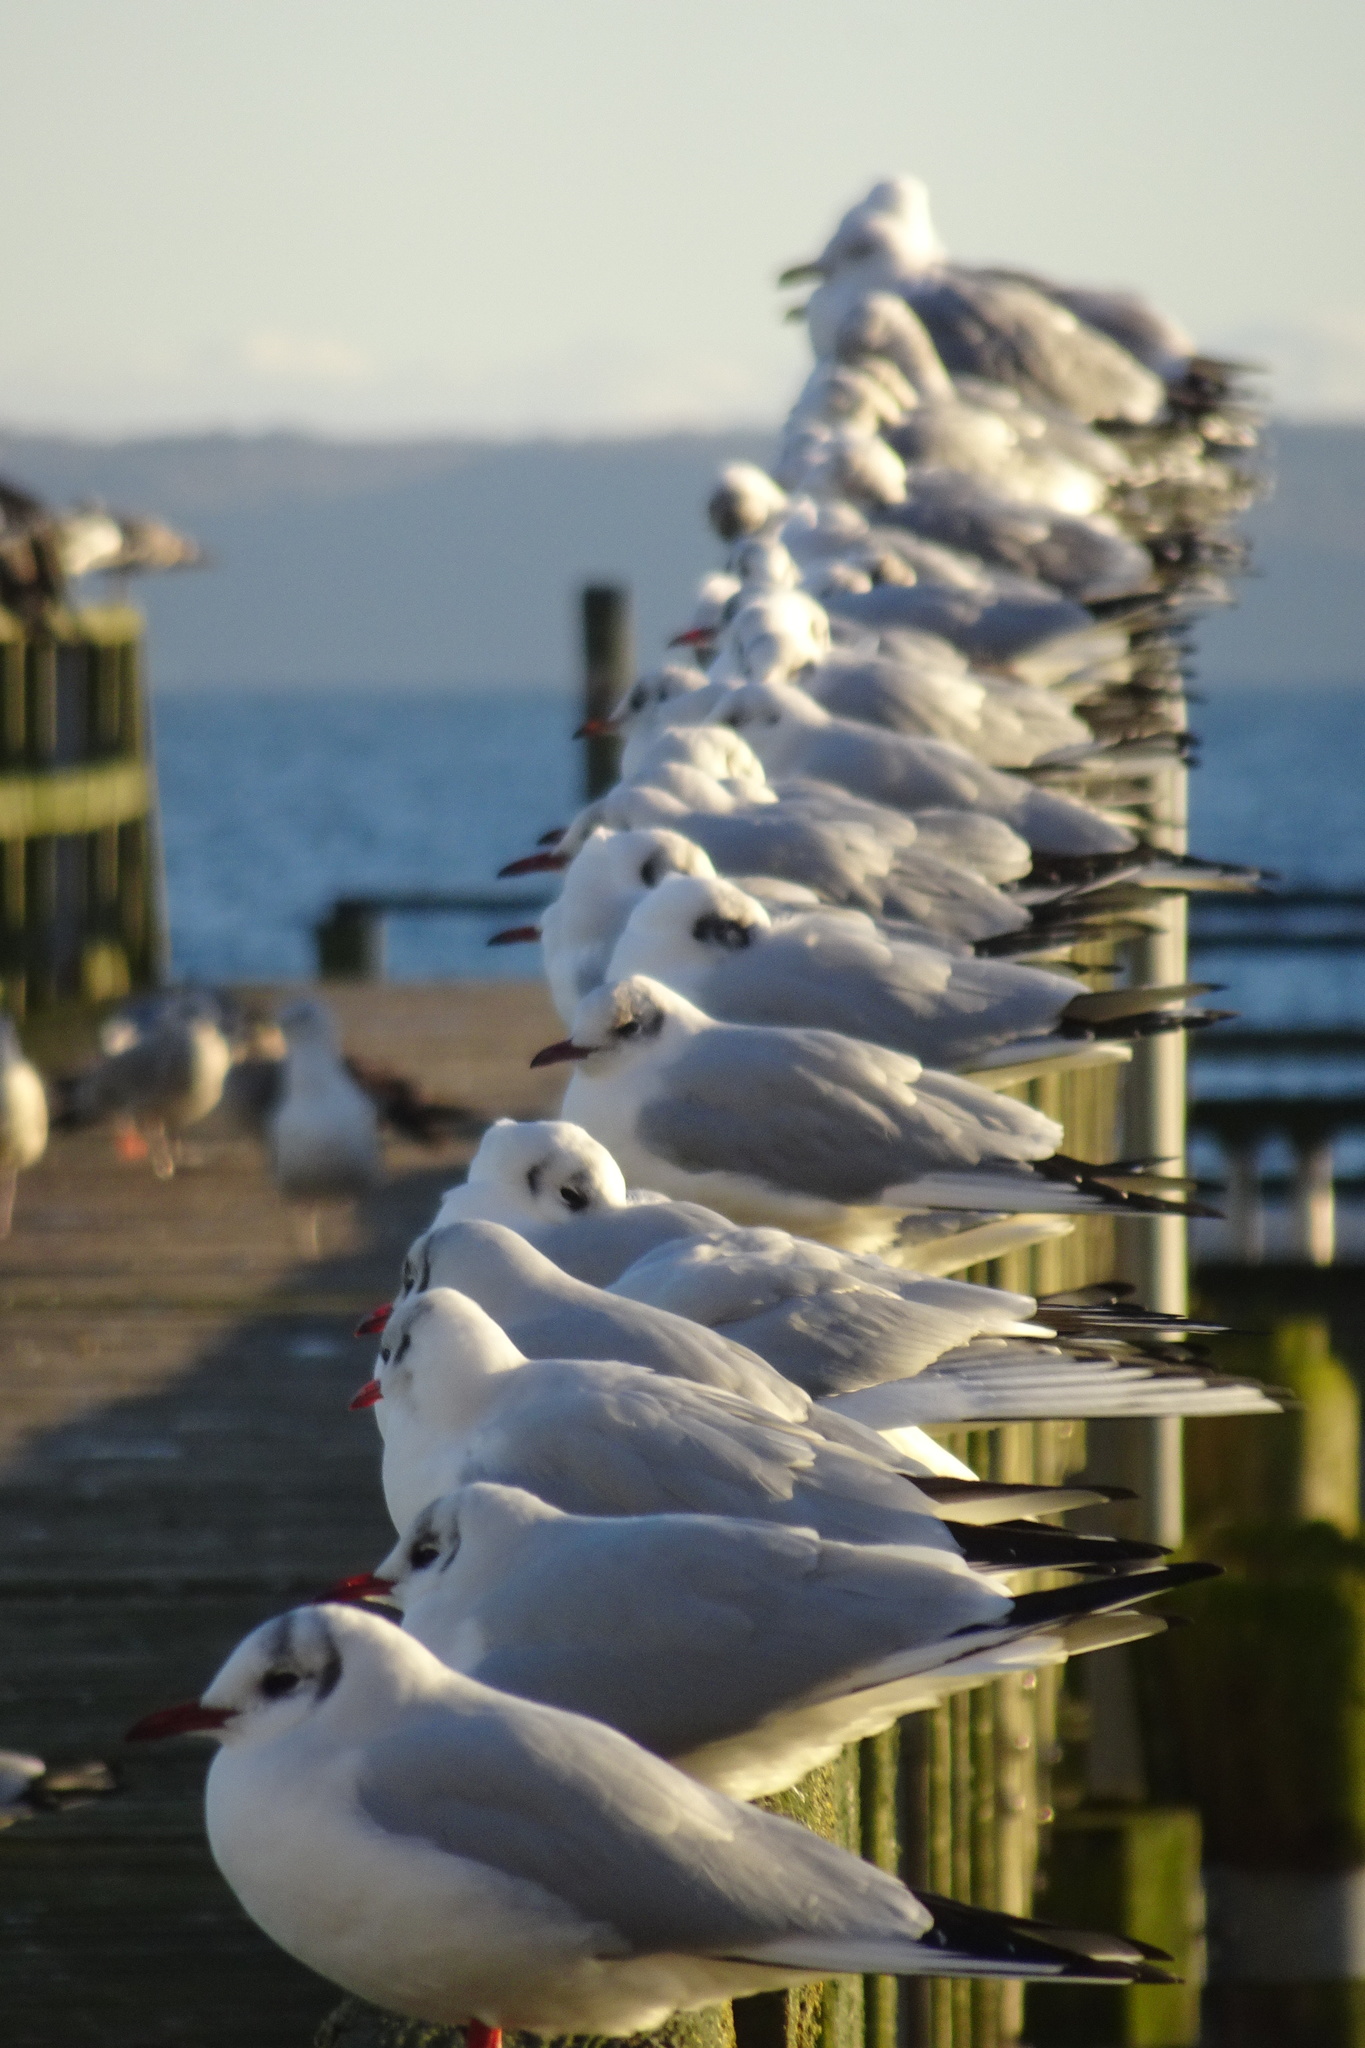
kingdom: Animalia
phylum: Chordata
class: Aves
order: Charadriiformes
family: Laridae
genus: Chroicocephalus
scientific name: Chroicocephalus ridibundus
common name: Black-headed gull
